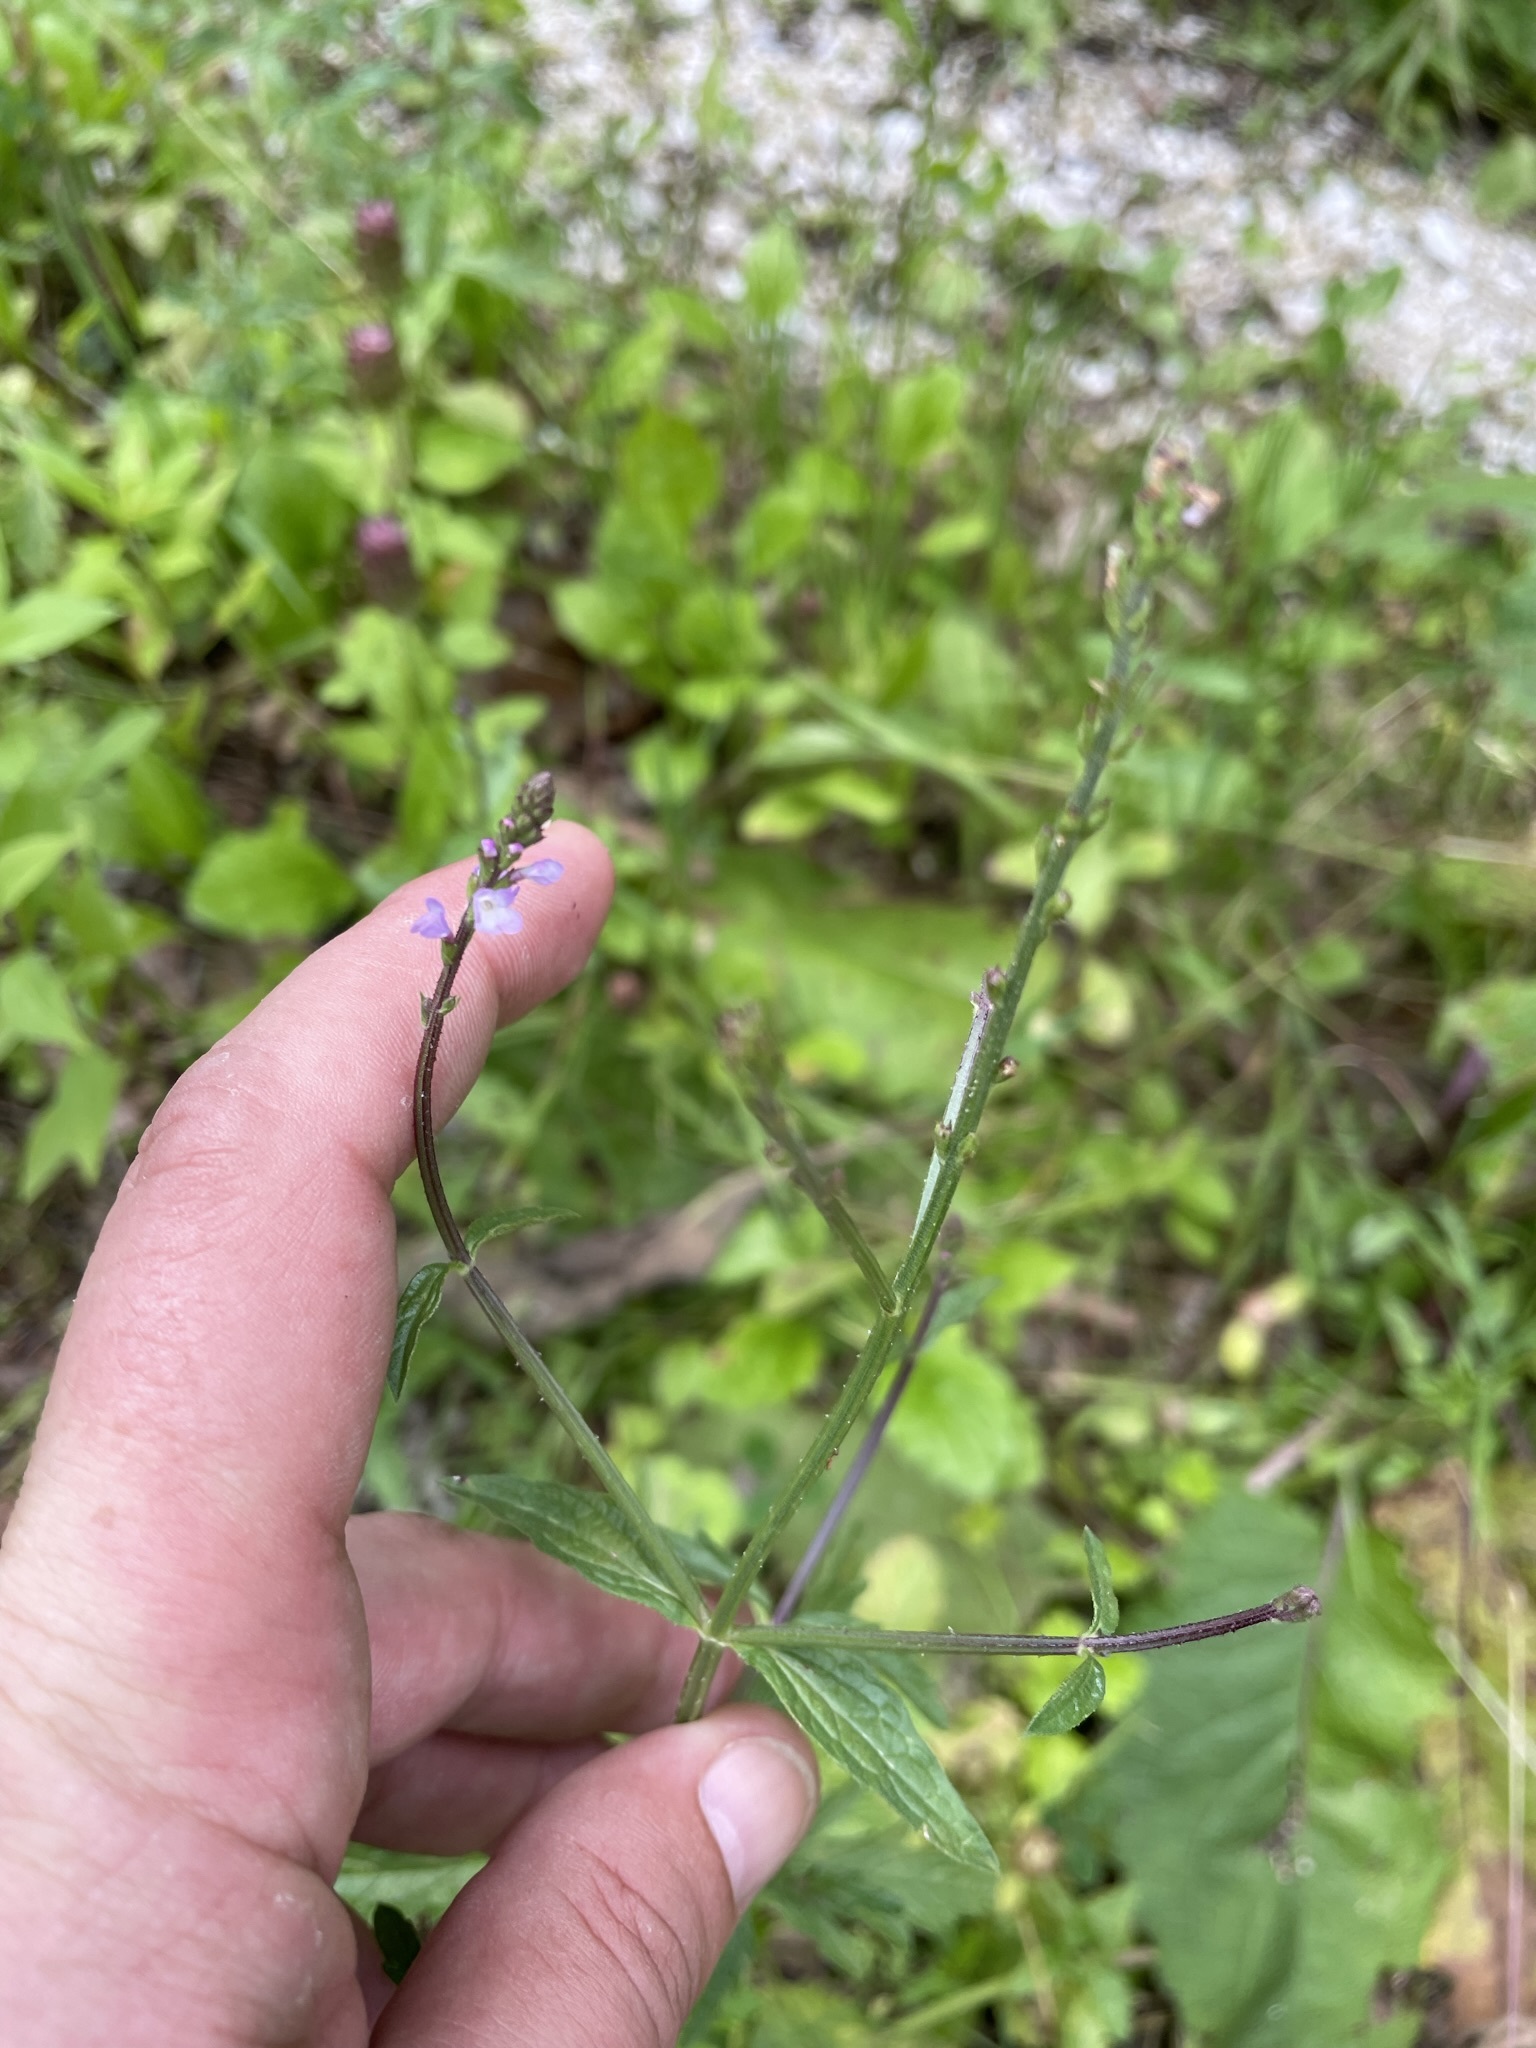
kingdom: Plantae
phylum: Tracheophyta
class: Magnoliopsida
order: Lamiales
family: Verbenaceae
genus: Verbena
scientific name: Verbena officinalis
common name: Vervain
